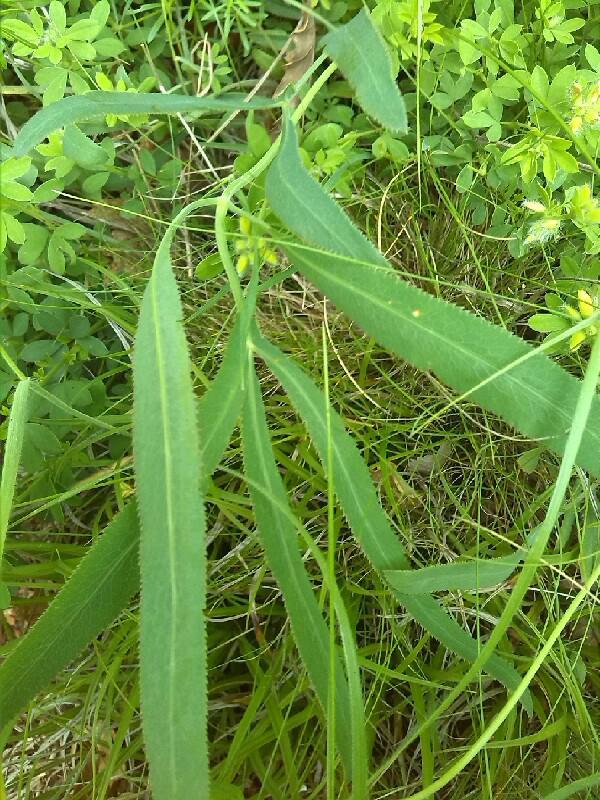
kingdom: Plantae
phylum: Tracheophyta
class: Magnoliopsida
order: Apiales
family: Apiaceae
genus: Falcaria
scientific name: Falcaria vulgaris
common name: Longleaf
